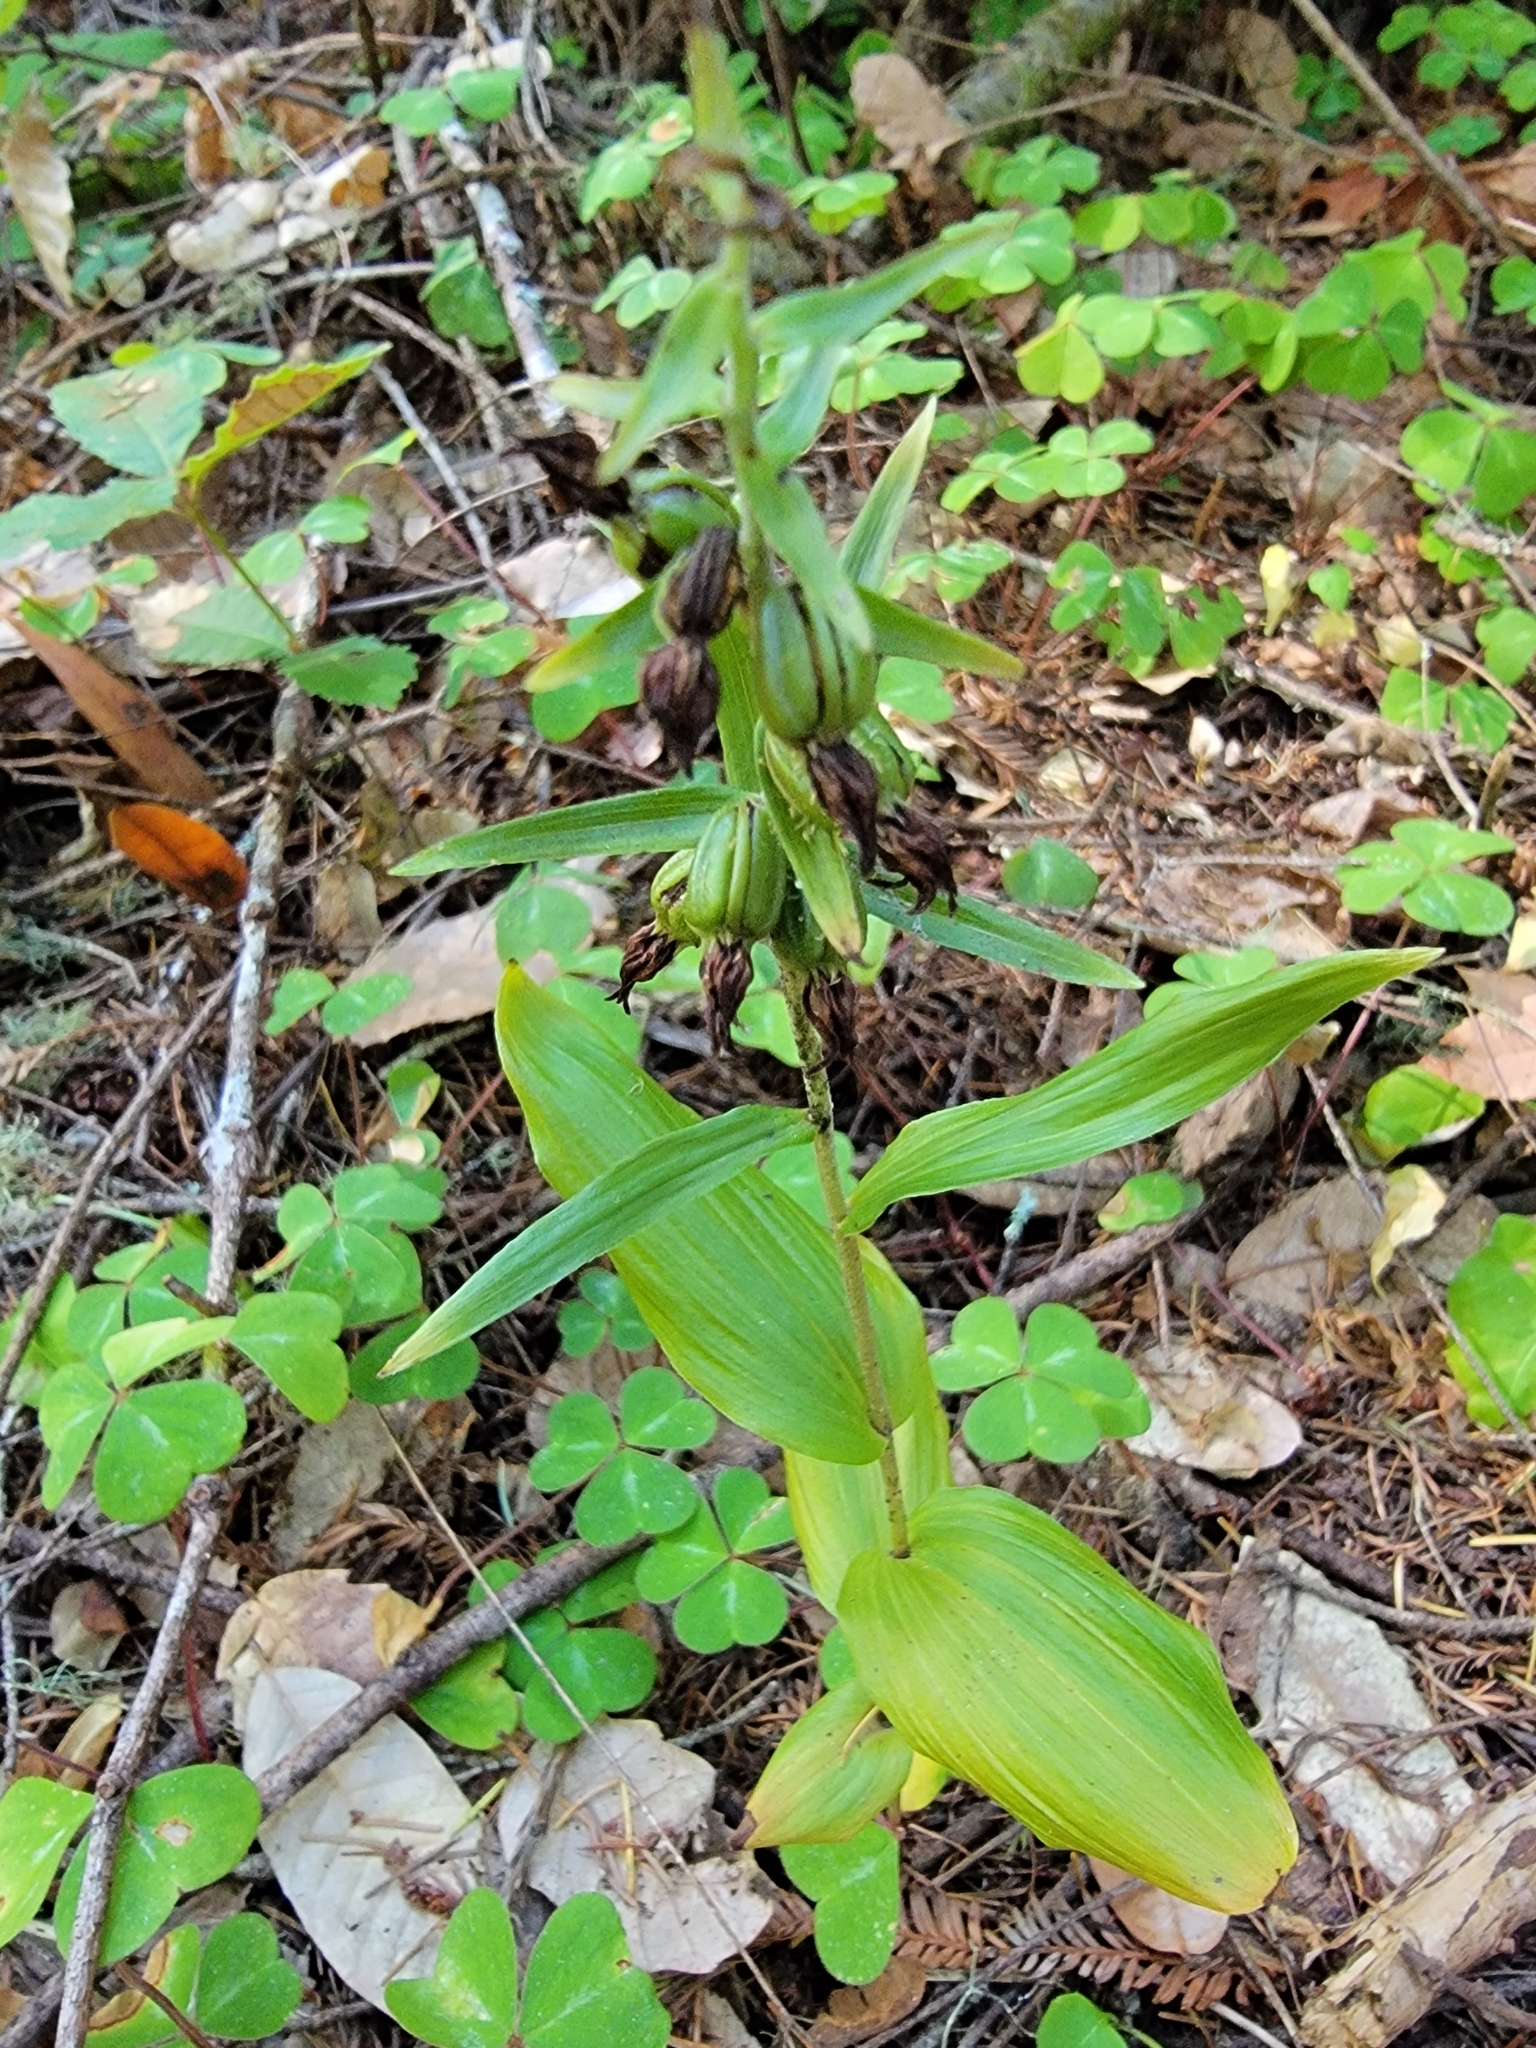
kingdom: Plantae
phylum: Tracheophyta
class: Liliopsida
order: Asparagales
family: Orchidaceae
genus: Epipactis
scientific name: Epipactis helleborine
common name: Broad-leaved helleborine
